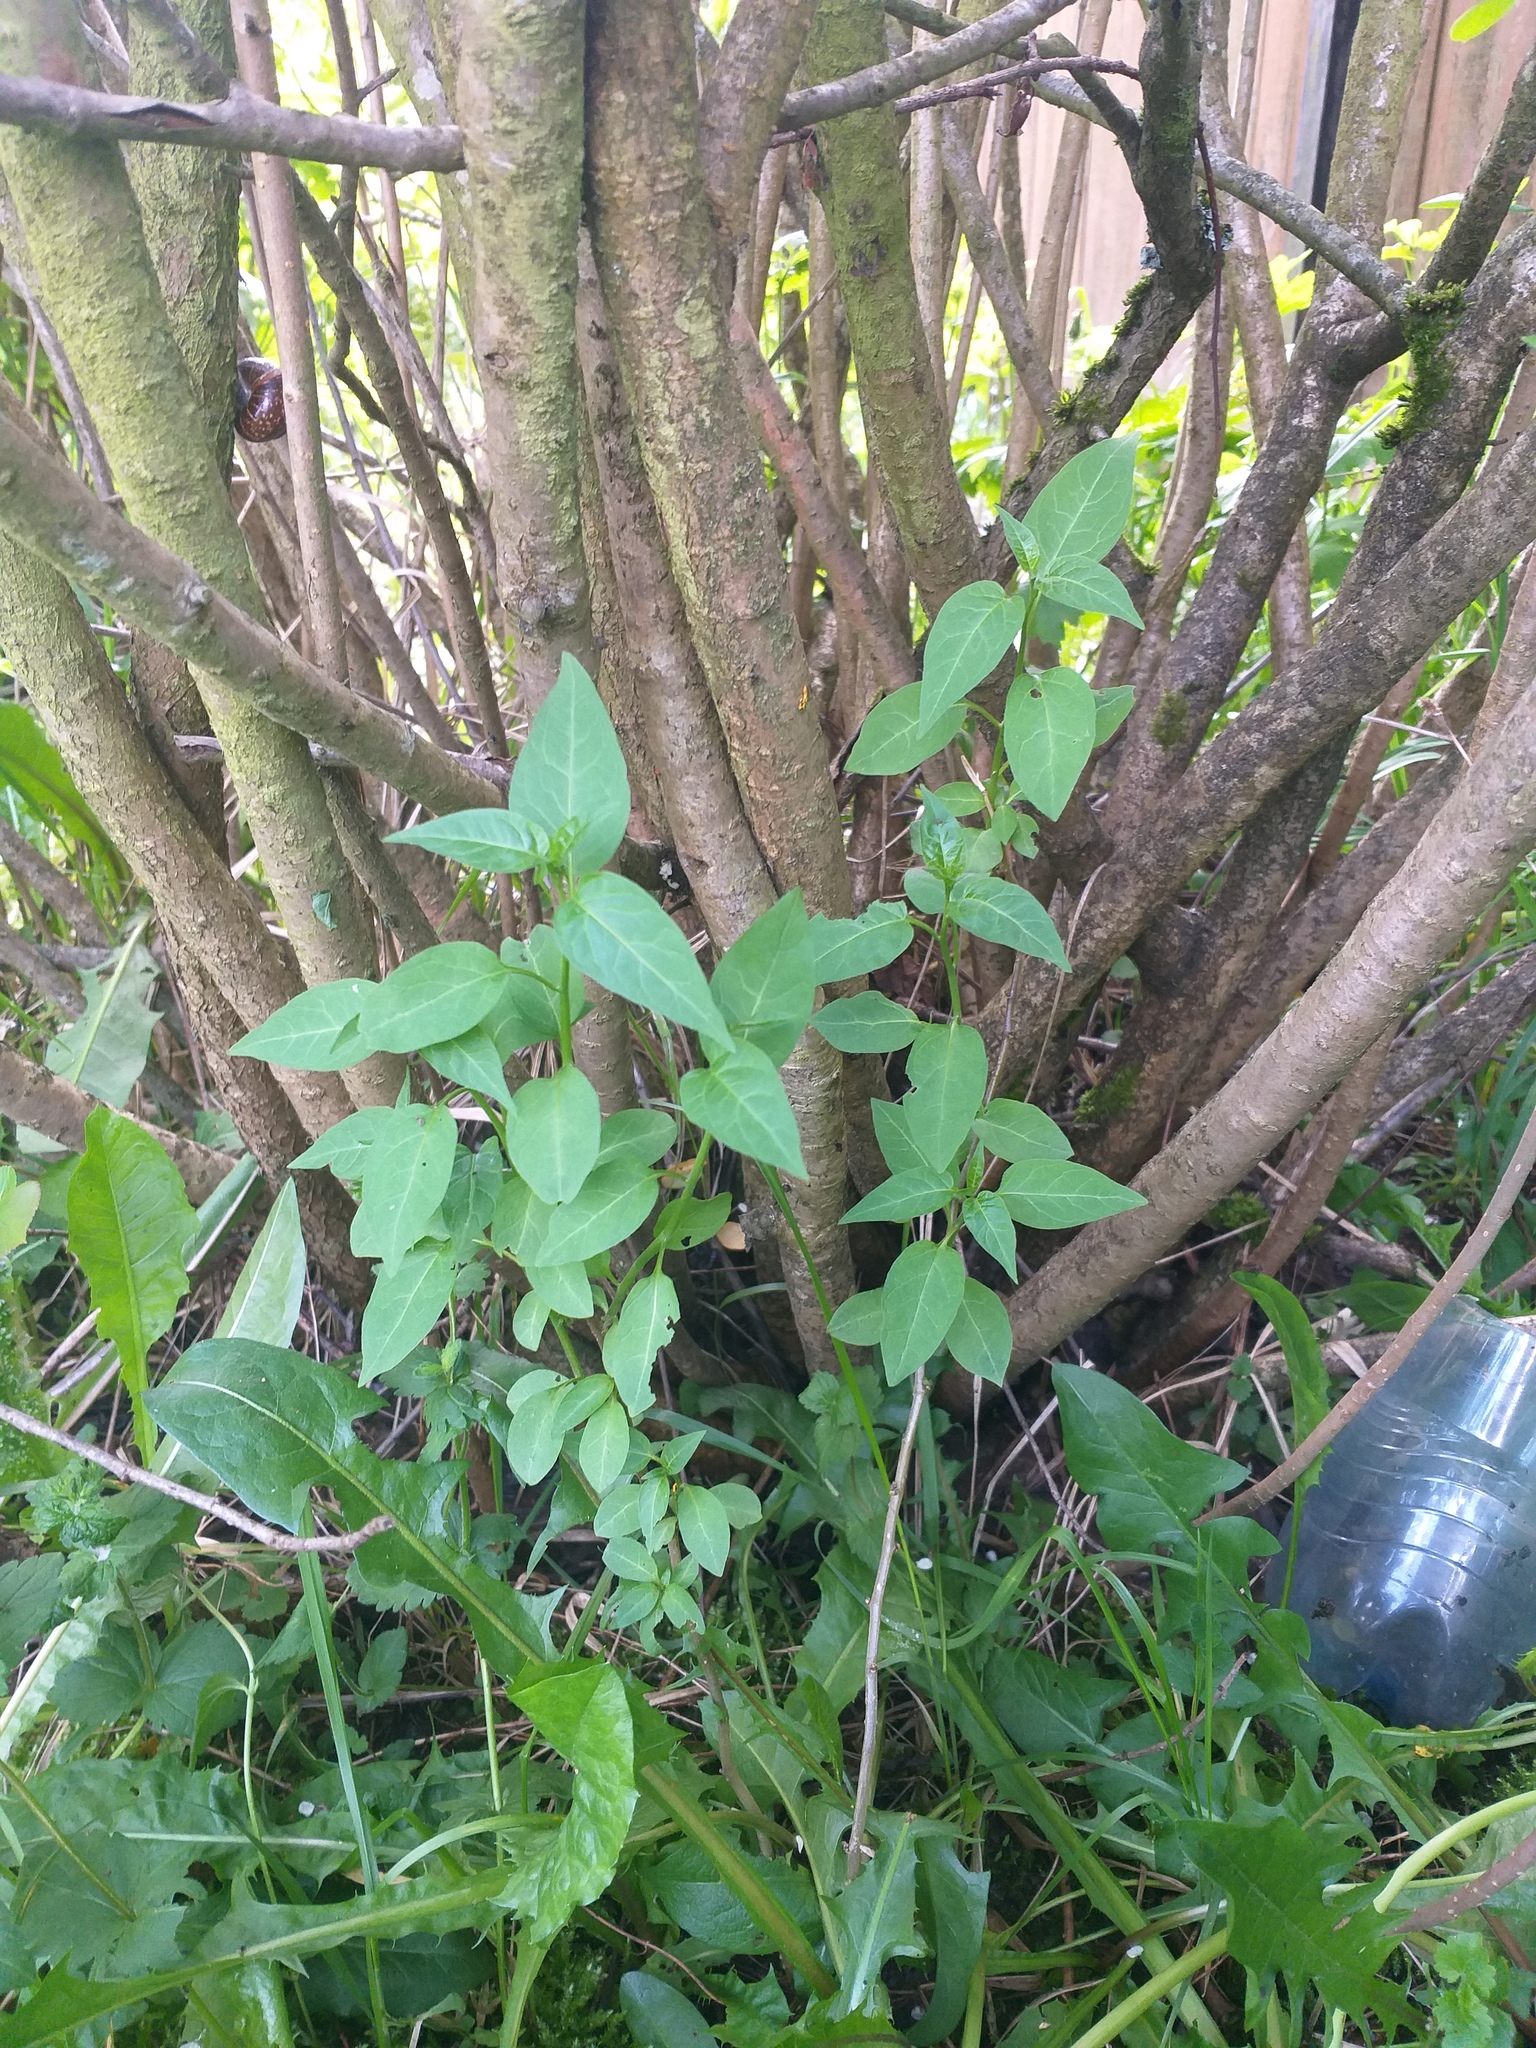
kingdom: Plantae
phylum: Tracheophyta
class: Magnoliopsida
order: Solanales
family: Solanaceae
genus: Solanum
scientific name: Solanum dulcamara
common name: Climbing nightshade
